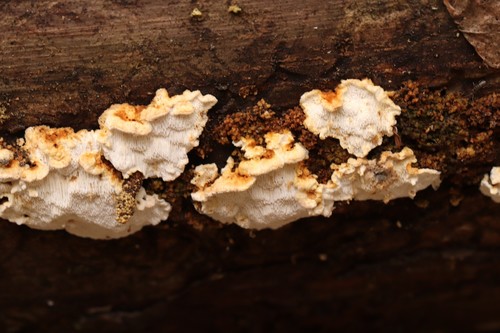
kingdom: Fungi
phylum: Basidiomycota
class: Agaricomycetes
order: Polyporales
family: Fomitopsidaceae
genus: Neoantrodia
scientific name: Neoantrodia
